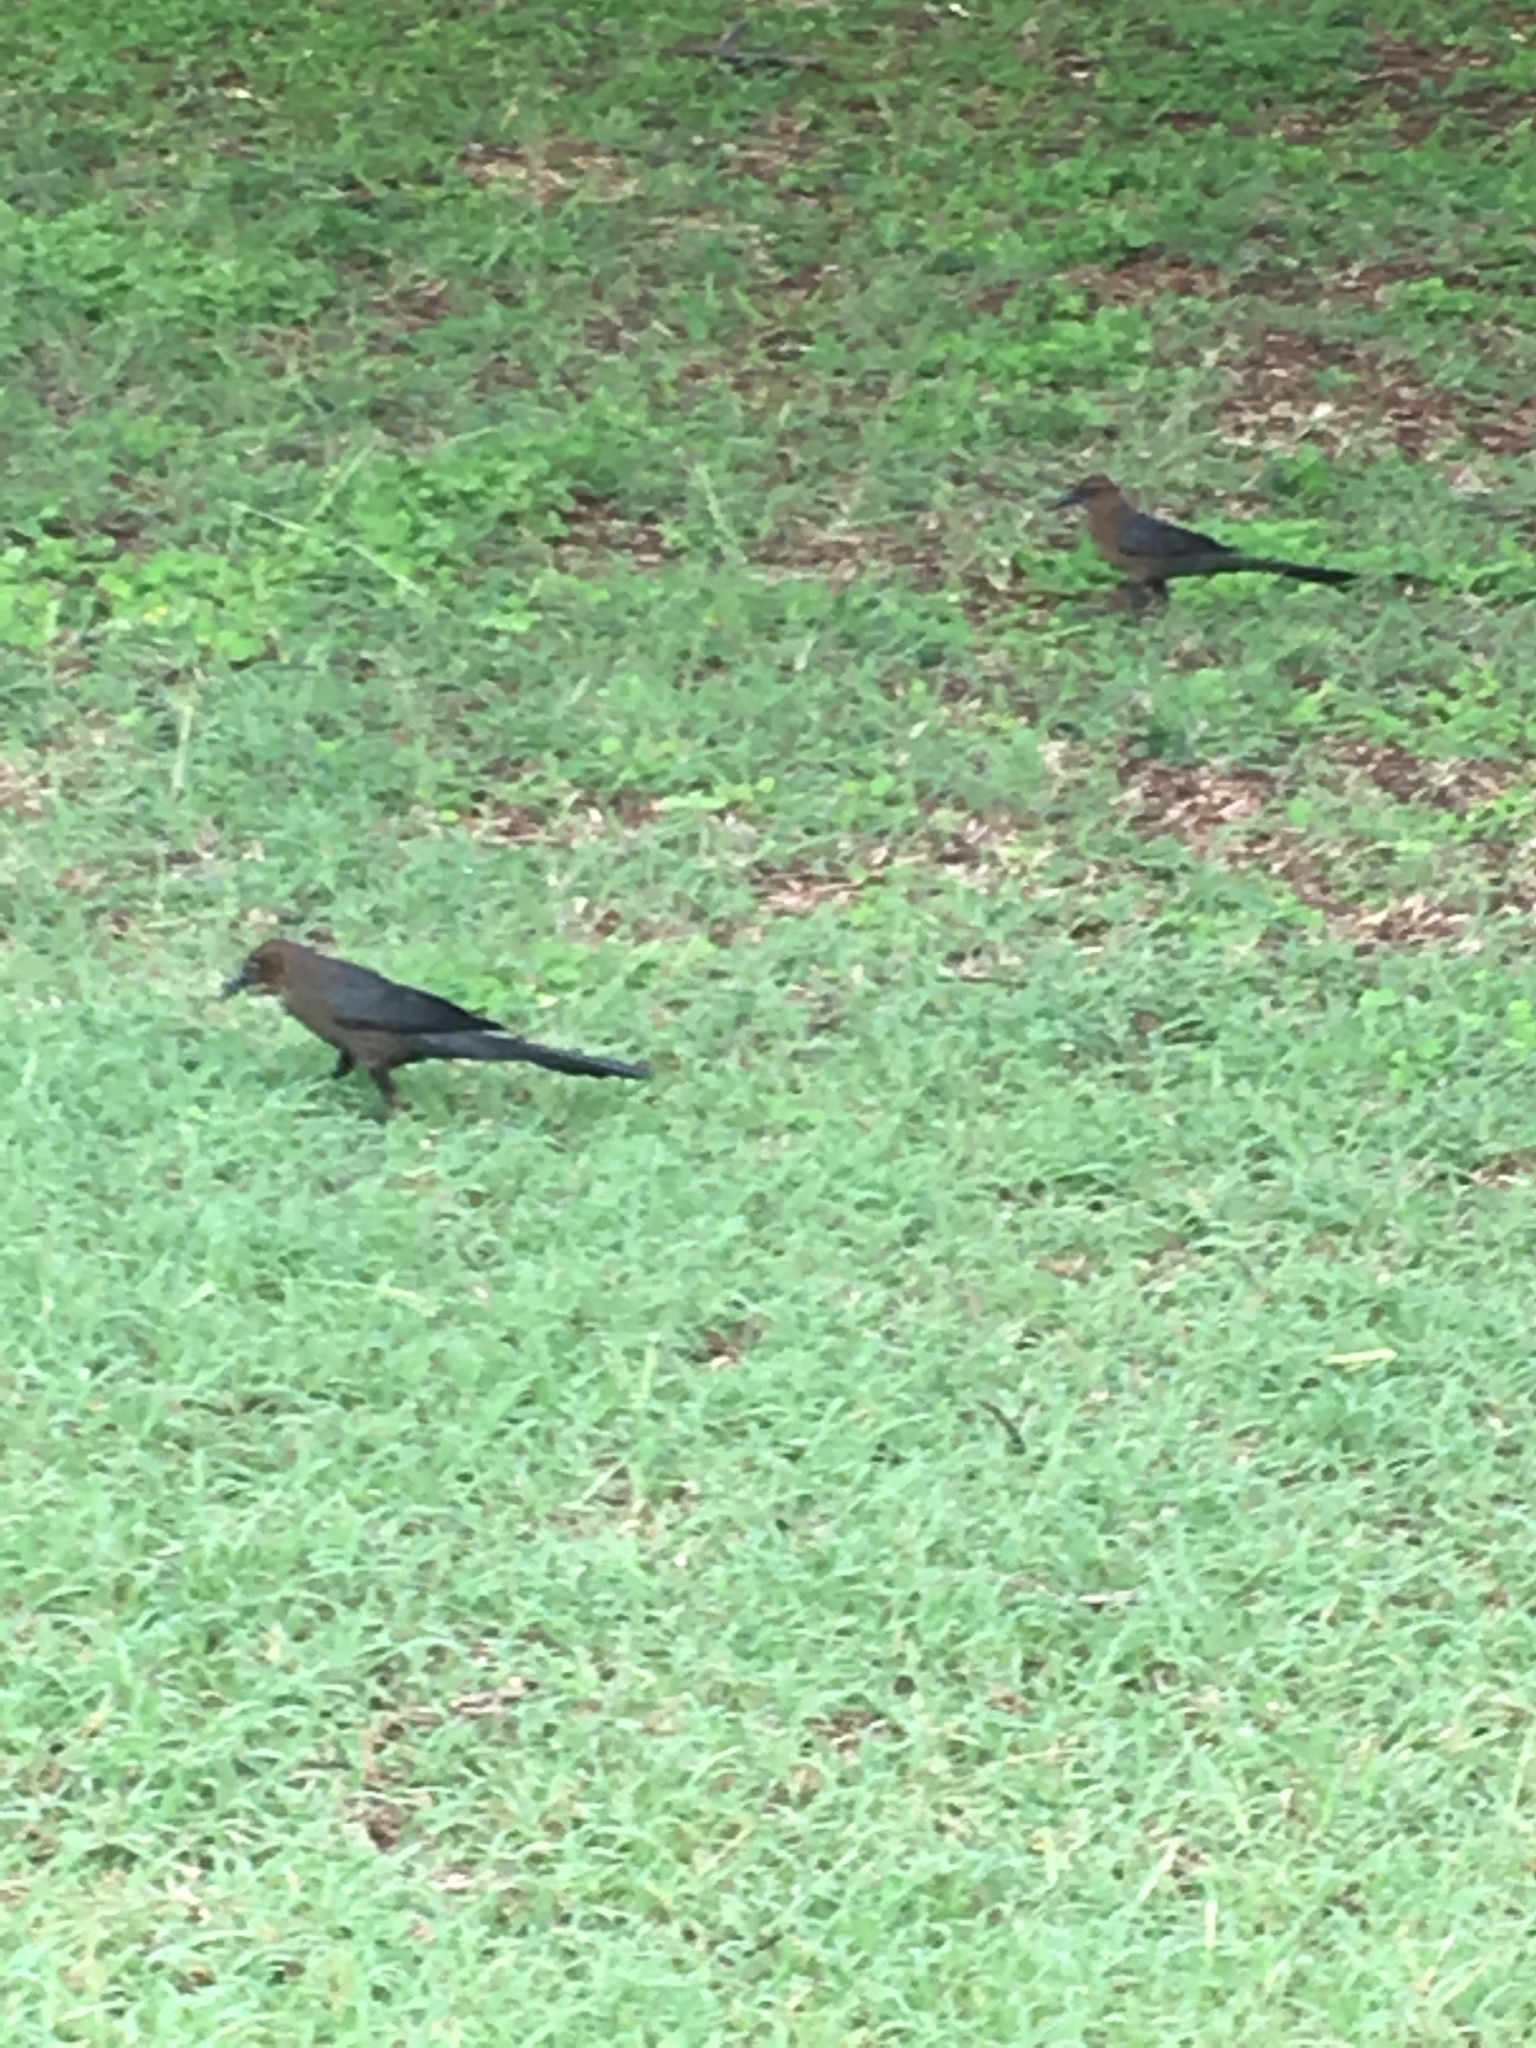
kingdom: Animalia
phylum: Chordata
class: Aves
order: Passeriformes
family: Icteridae
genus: Quiscalus
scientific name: Quiscalus mexicanus
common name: Great-tailed grackle
